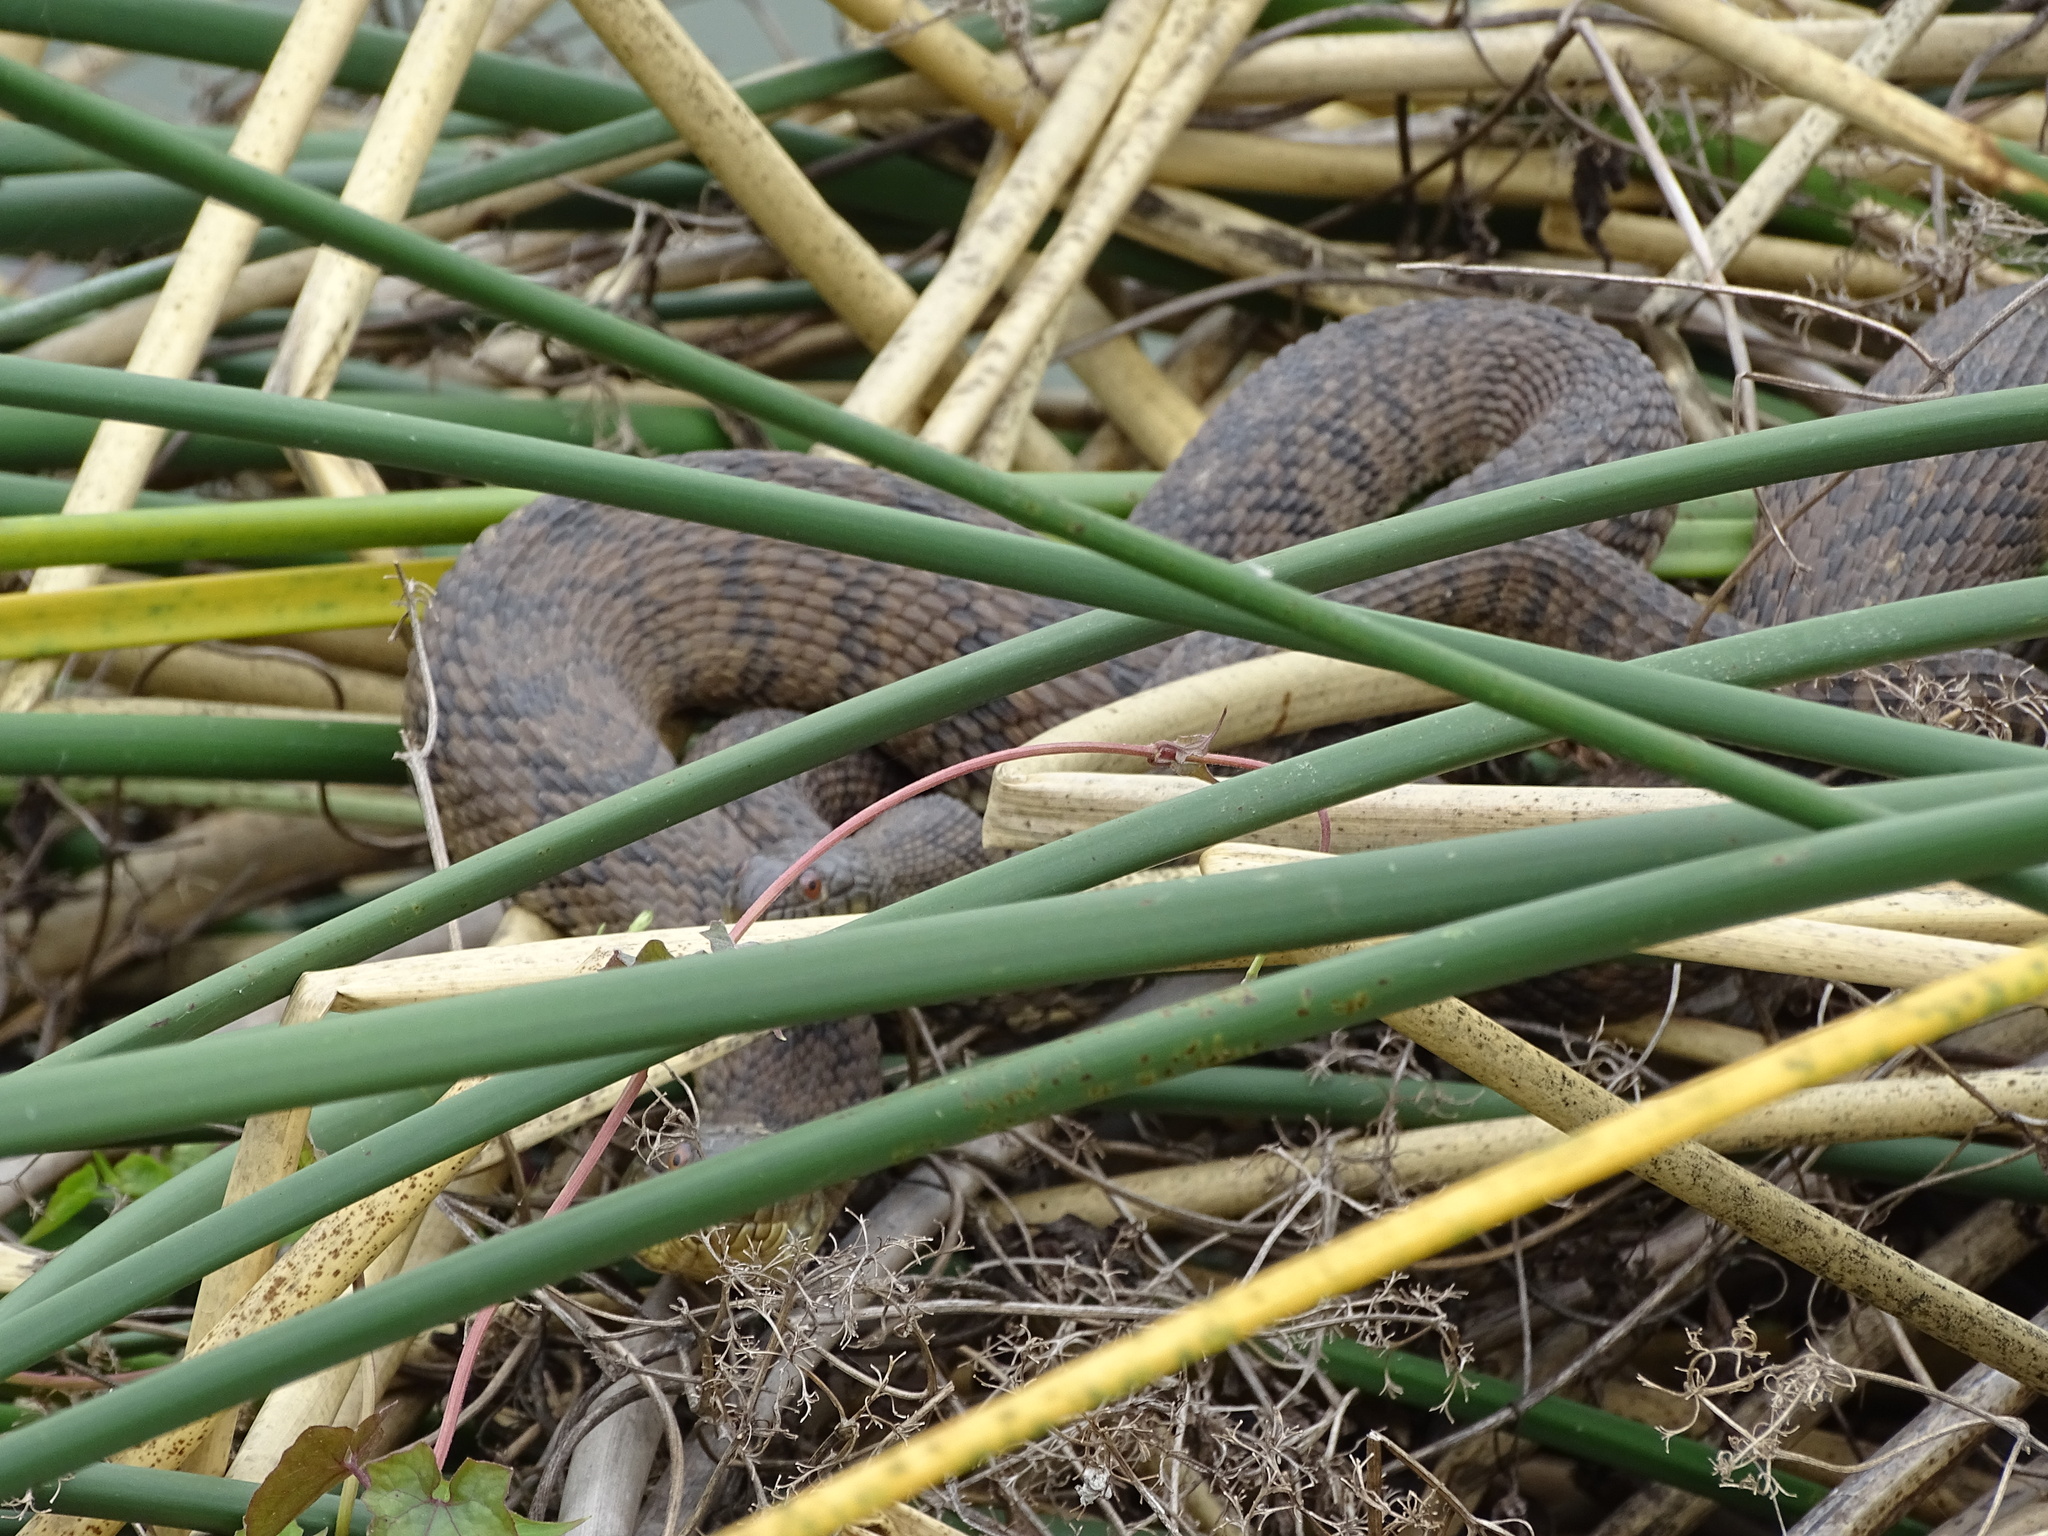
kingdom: Animalia
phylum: Chordata
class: Squamata
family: Colubridae
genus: Nerodia
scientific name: Nerodia rhombifer
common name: Diamondback water snake
